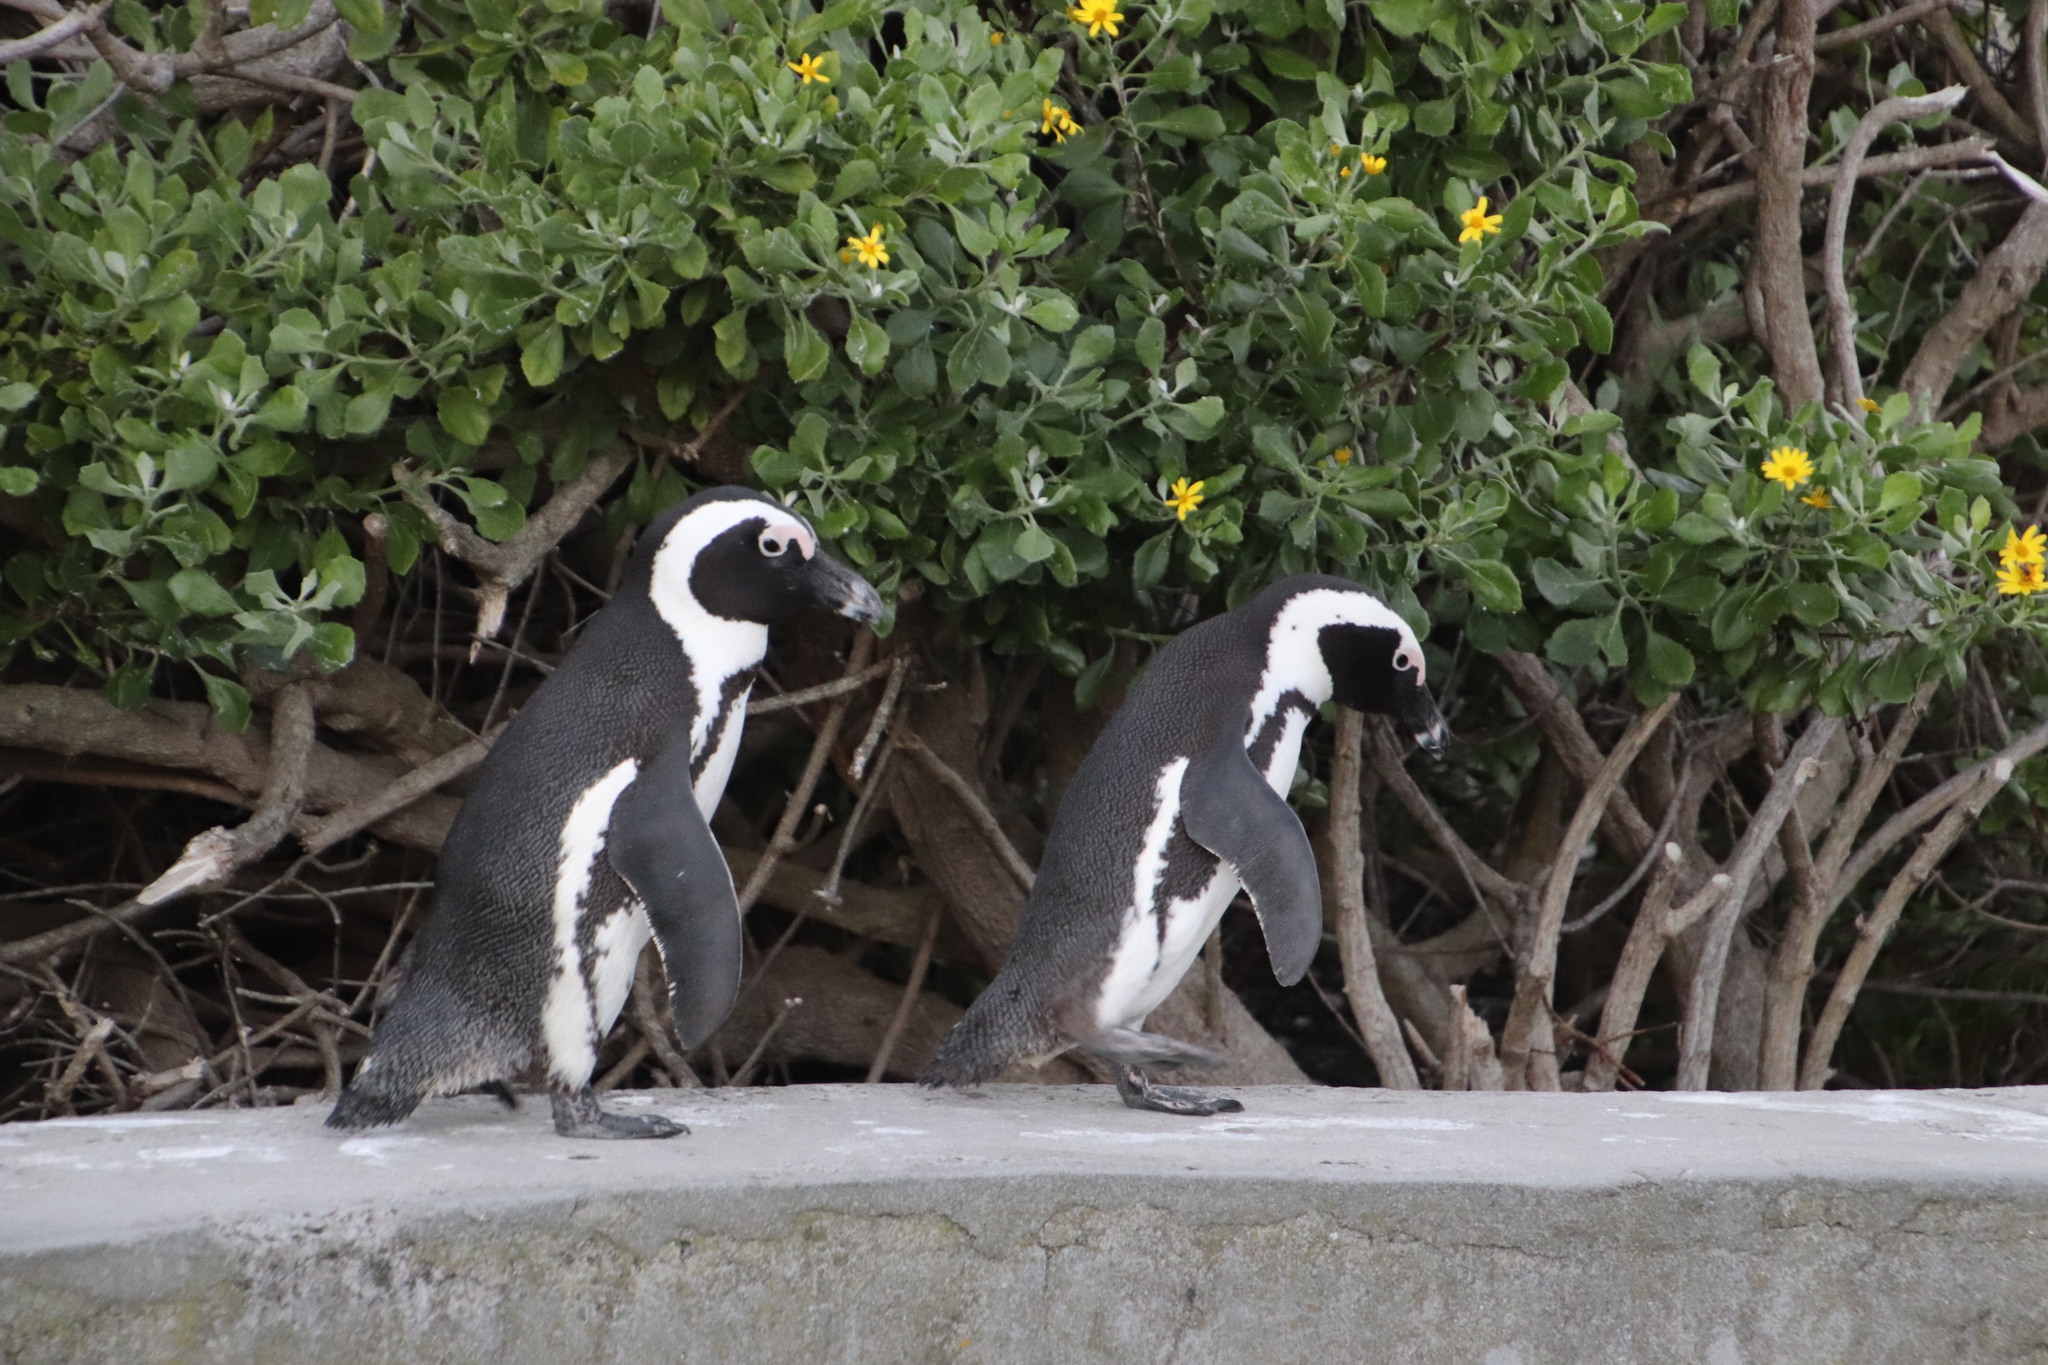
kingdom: Animalia
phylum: Chordata
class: Aves
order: Sphenisciformes
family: Spheniscidae
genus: Spheniscus
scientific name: Spheniscus demersus
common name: African penguin
